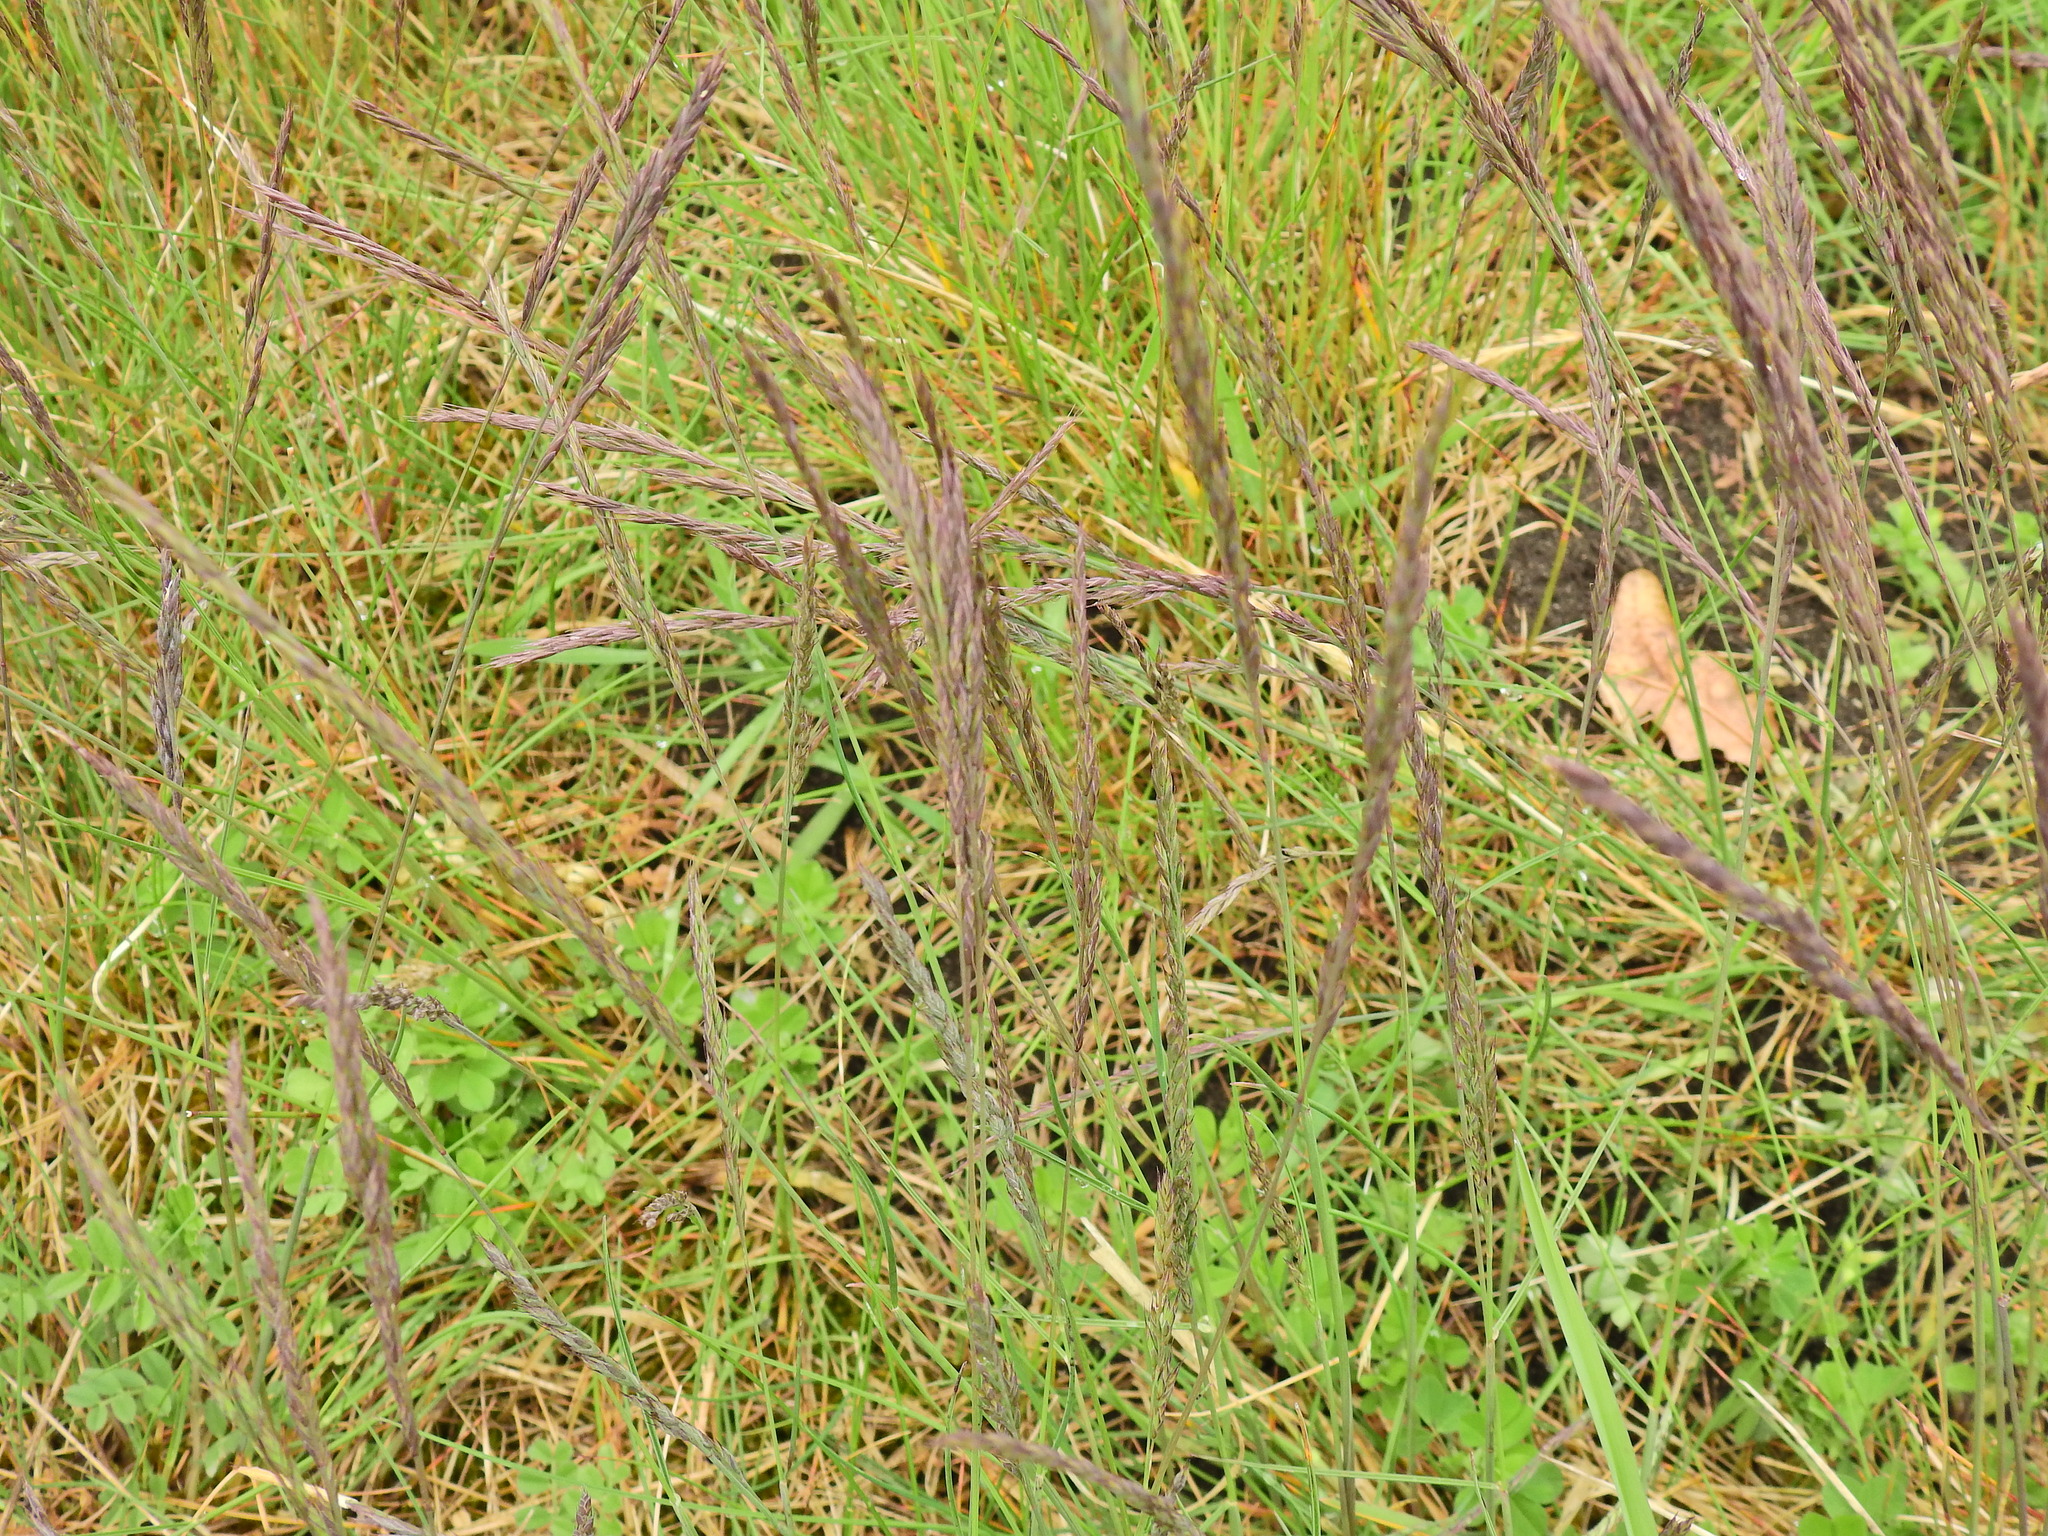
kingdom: Plantae
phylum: Tracheophyta
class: Liliopsida
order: Poales
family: Poaceae
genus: Festuca
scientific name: Festuca rubra
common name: Red fescue
